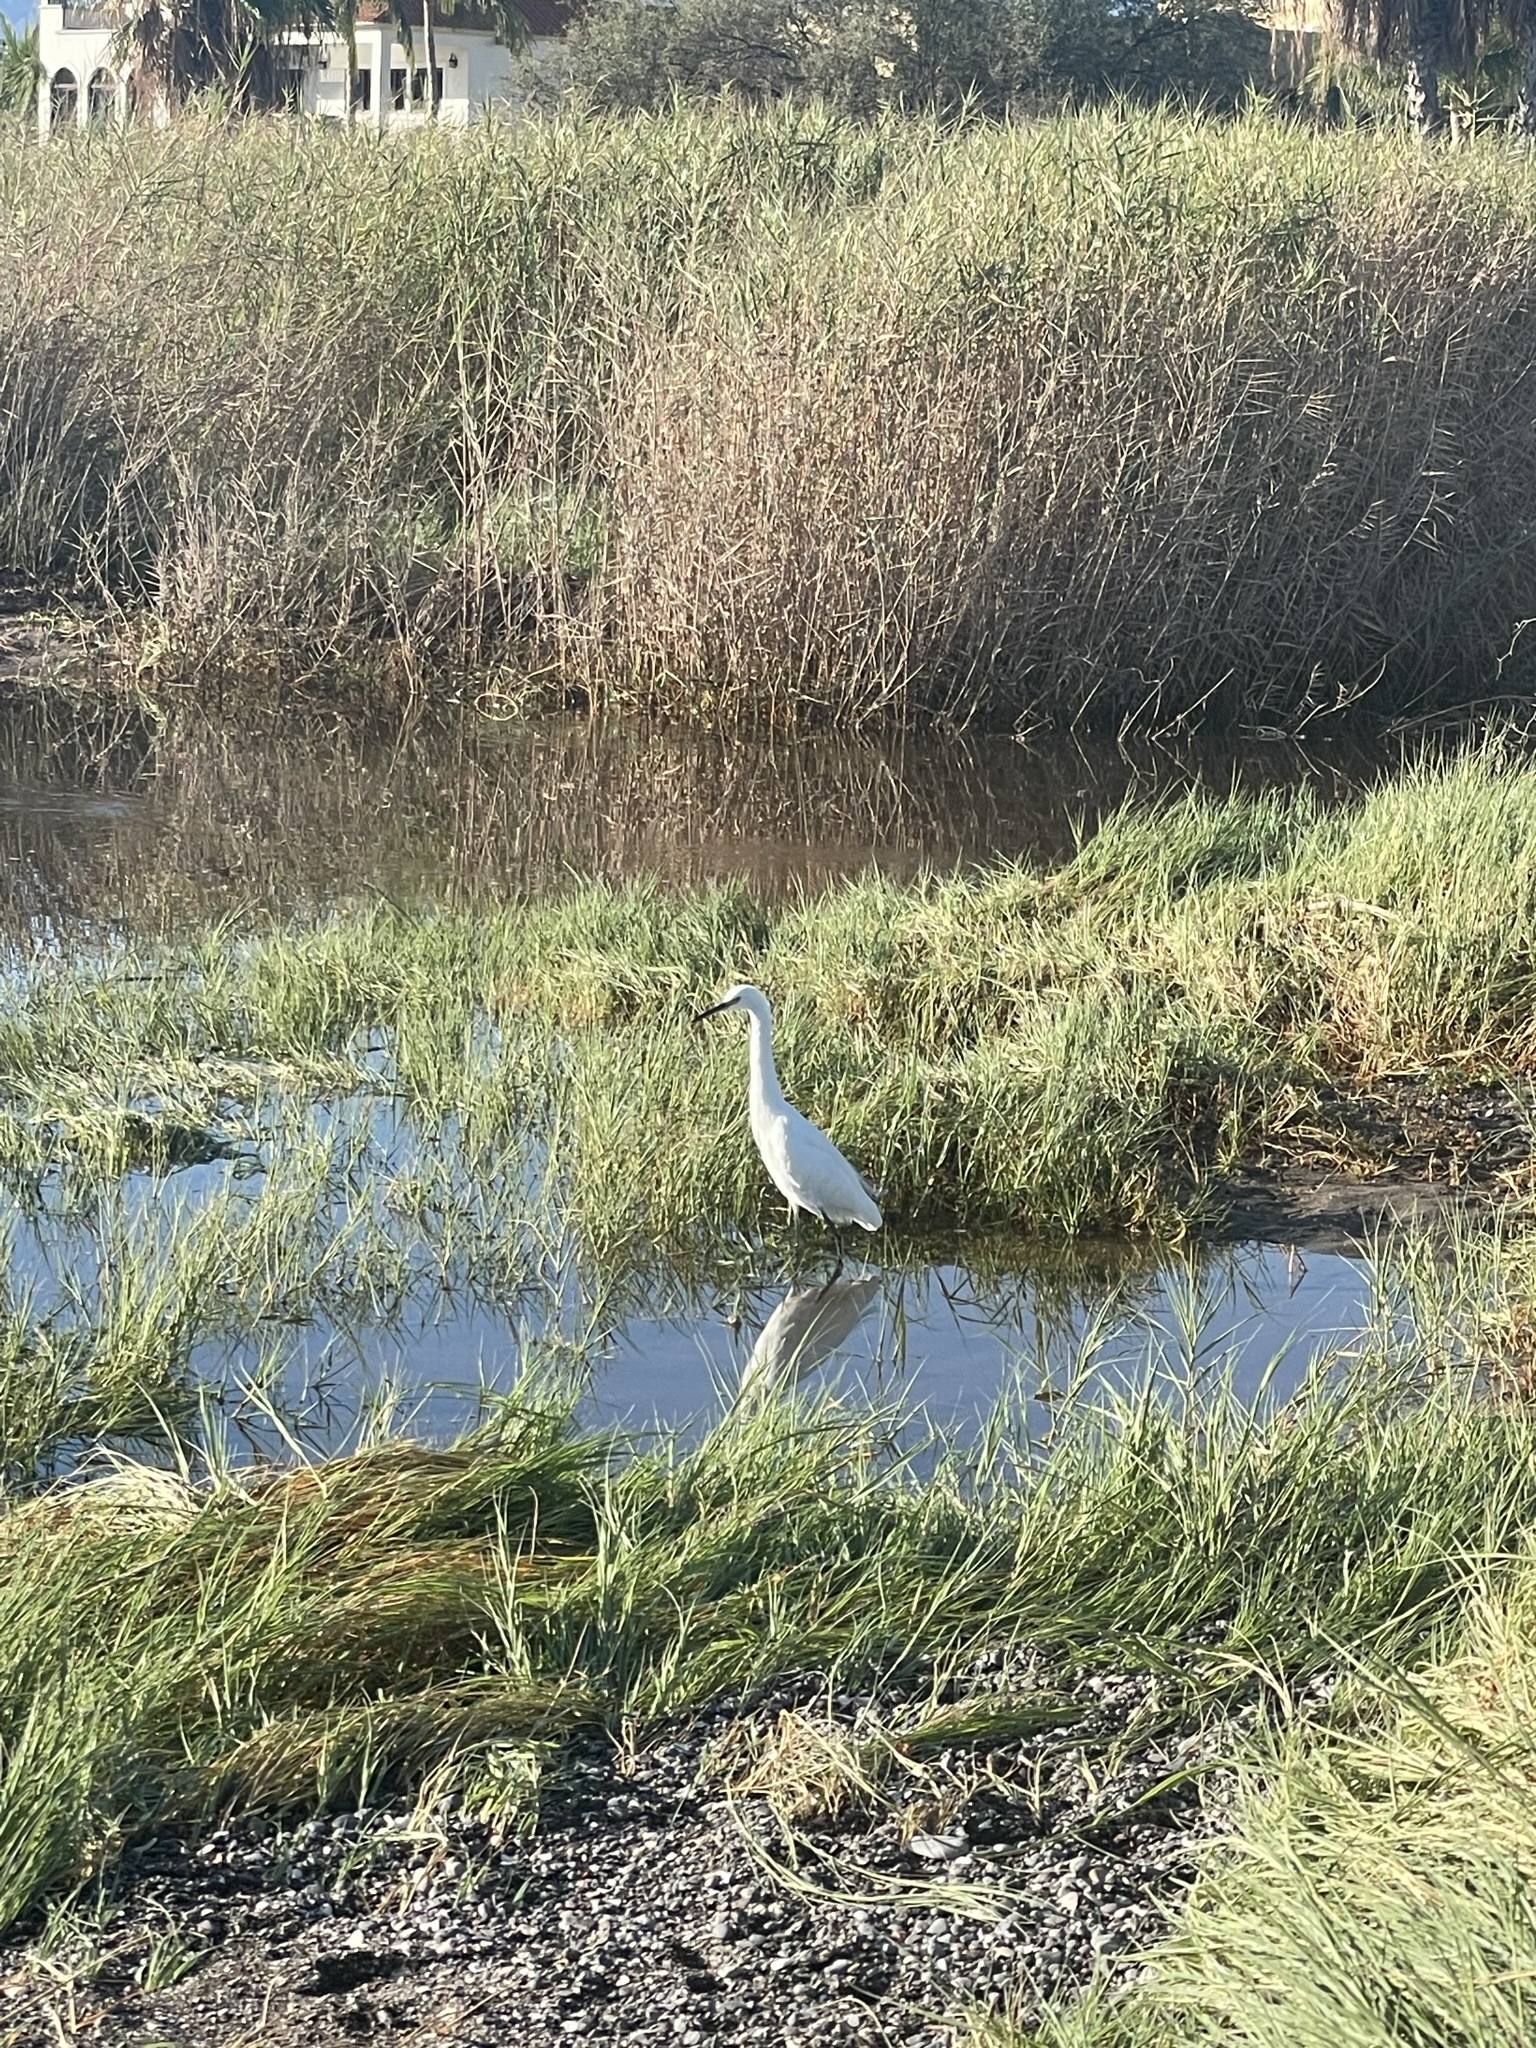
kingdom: Animalia
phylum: Chordata
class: Aves
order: Pelecaniformes
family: Ardeidae
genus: Egretta
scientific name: Egretta thula
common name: Snowy egret
